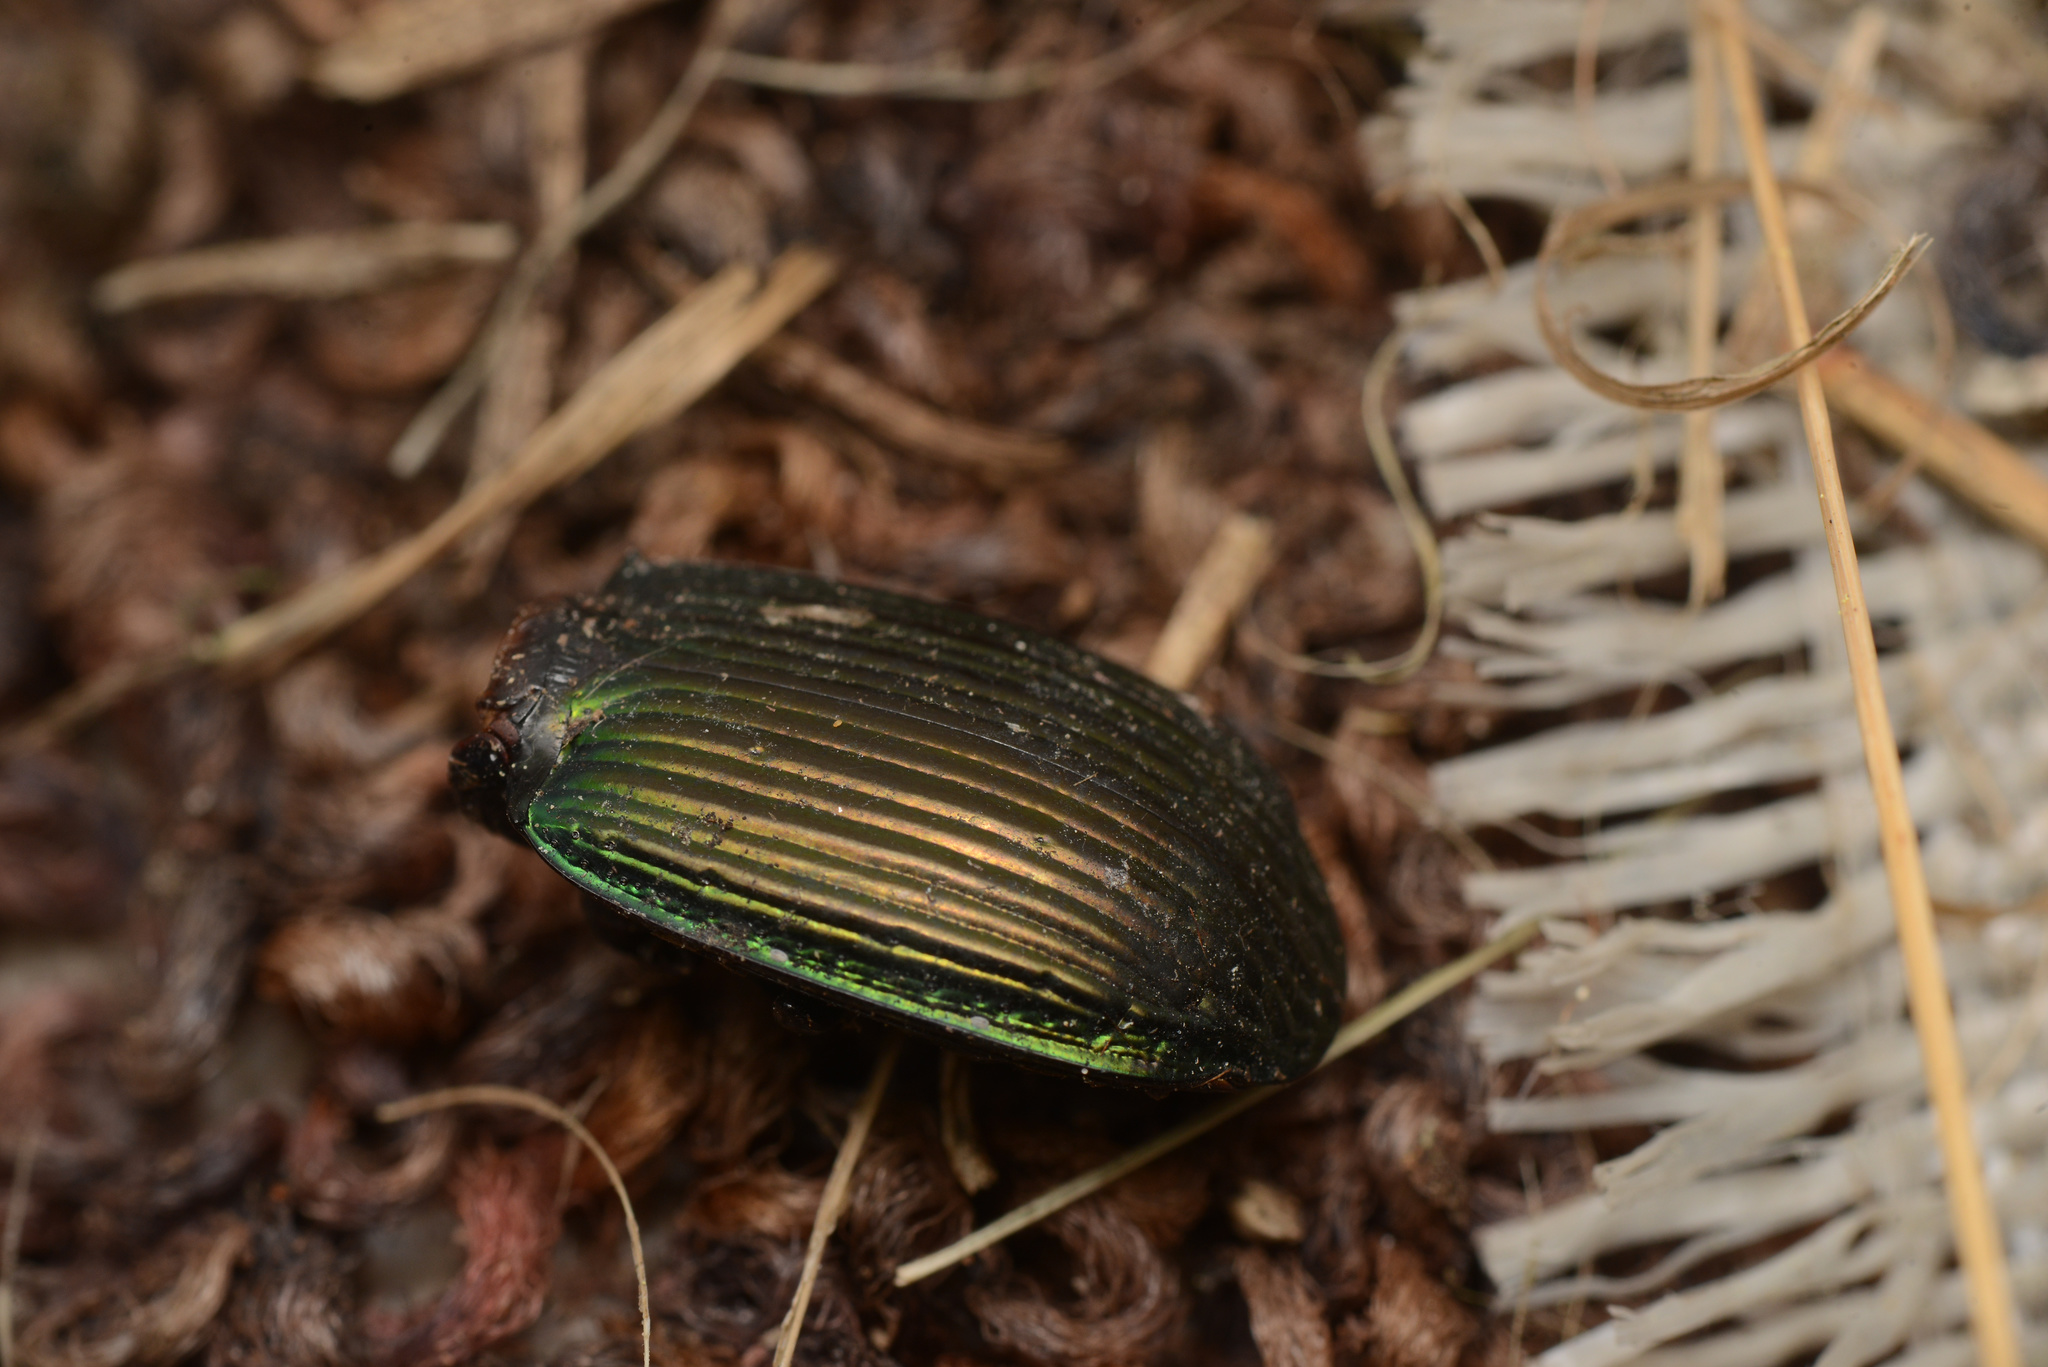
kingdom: Animalia
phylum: Arthropoda
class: Insecta
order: Coleoptera
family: Carabidae
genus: Megadromus
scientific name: Megadromus antarcticus
